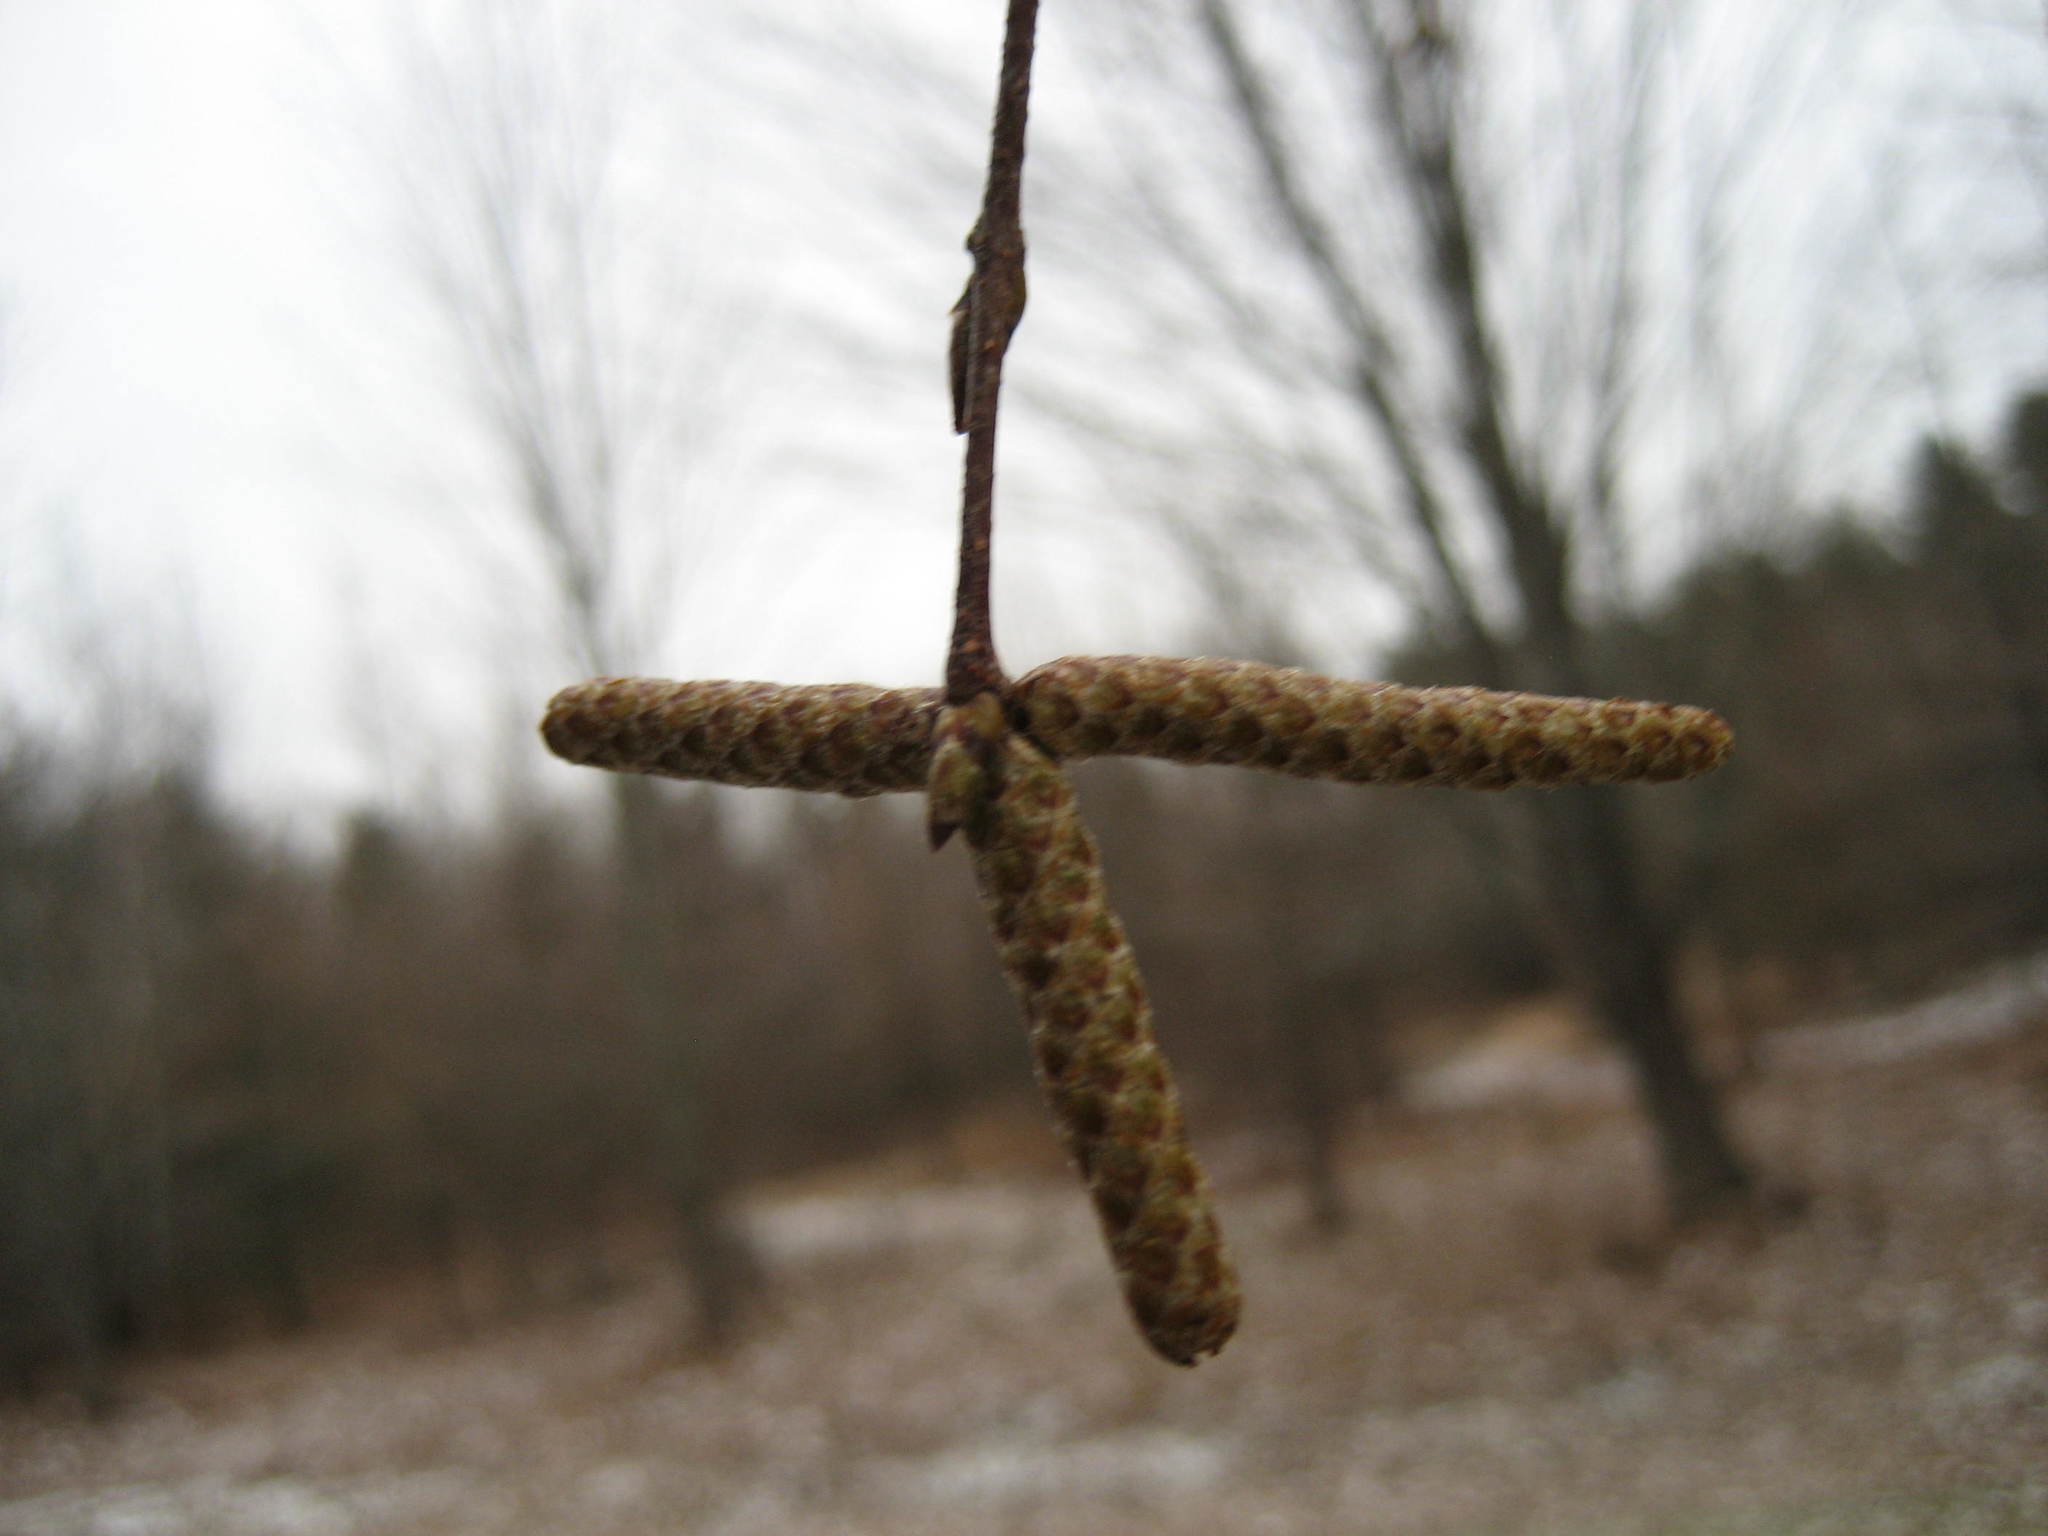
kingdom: Plantae
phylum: Tracheophyta
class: Magnoliopsida
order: Fagales
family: Betulaceae
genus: Betula
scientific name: Betula papyrifera
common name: Paper birch
